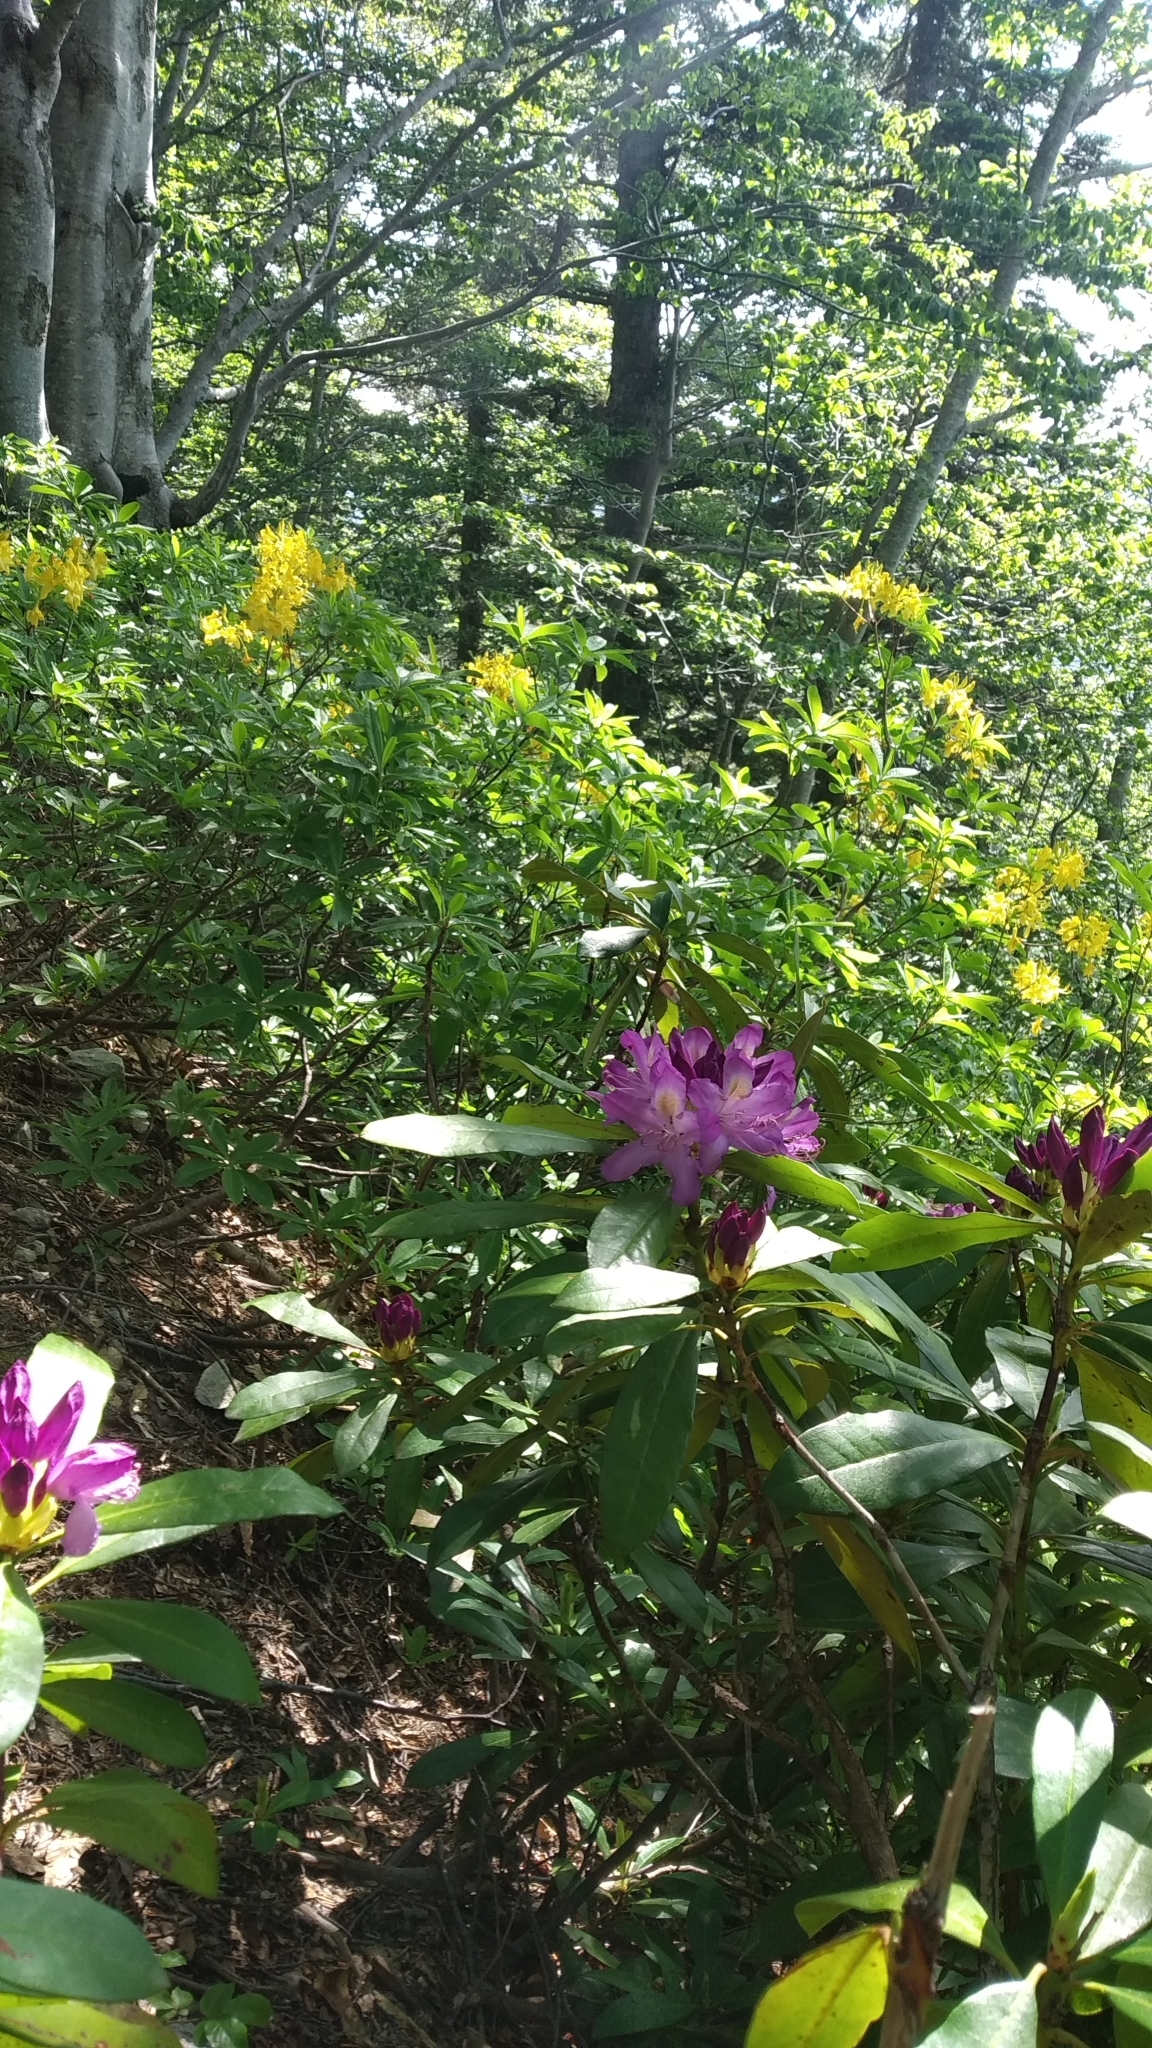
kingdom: Plantae
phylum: Tracheophyta
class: Magnoliopsida
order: Ericales
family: Ericaceae
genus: Rhododendron
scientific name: Rhododendron ponticum
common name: Rhododendron
